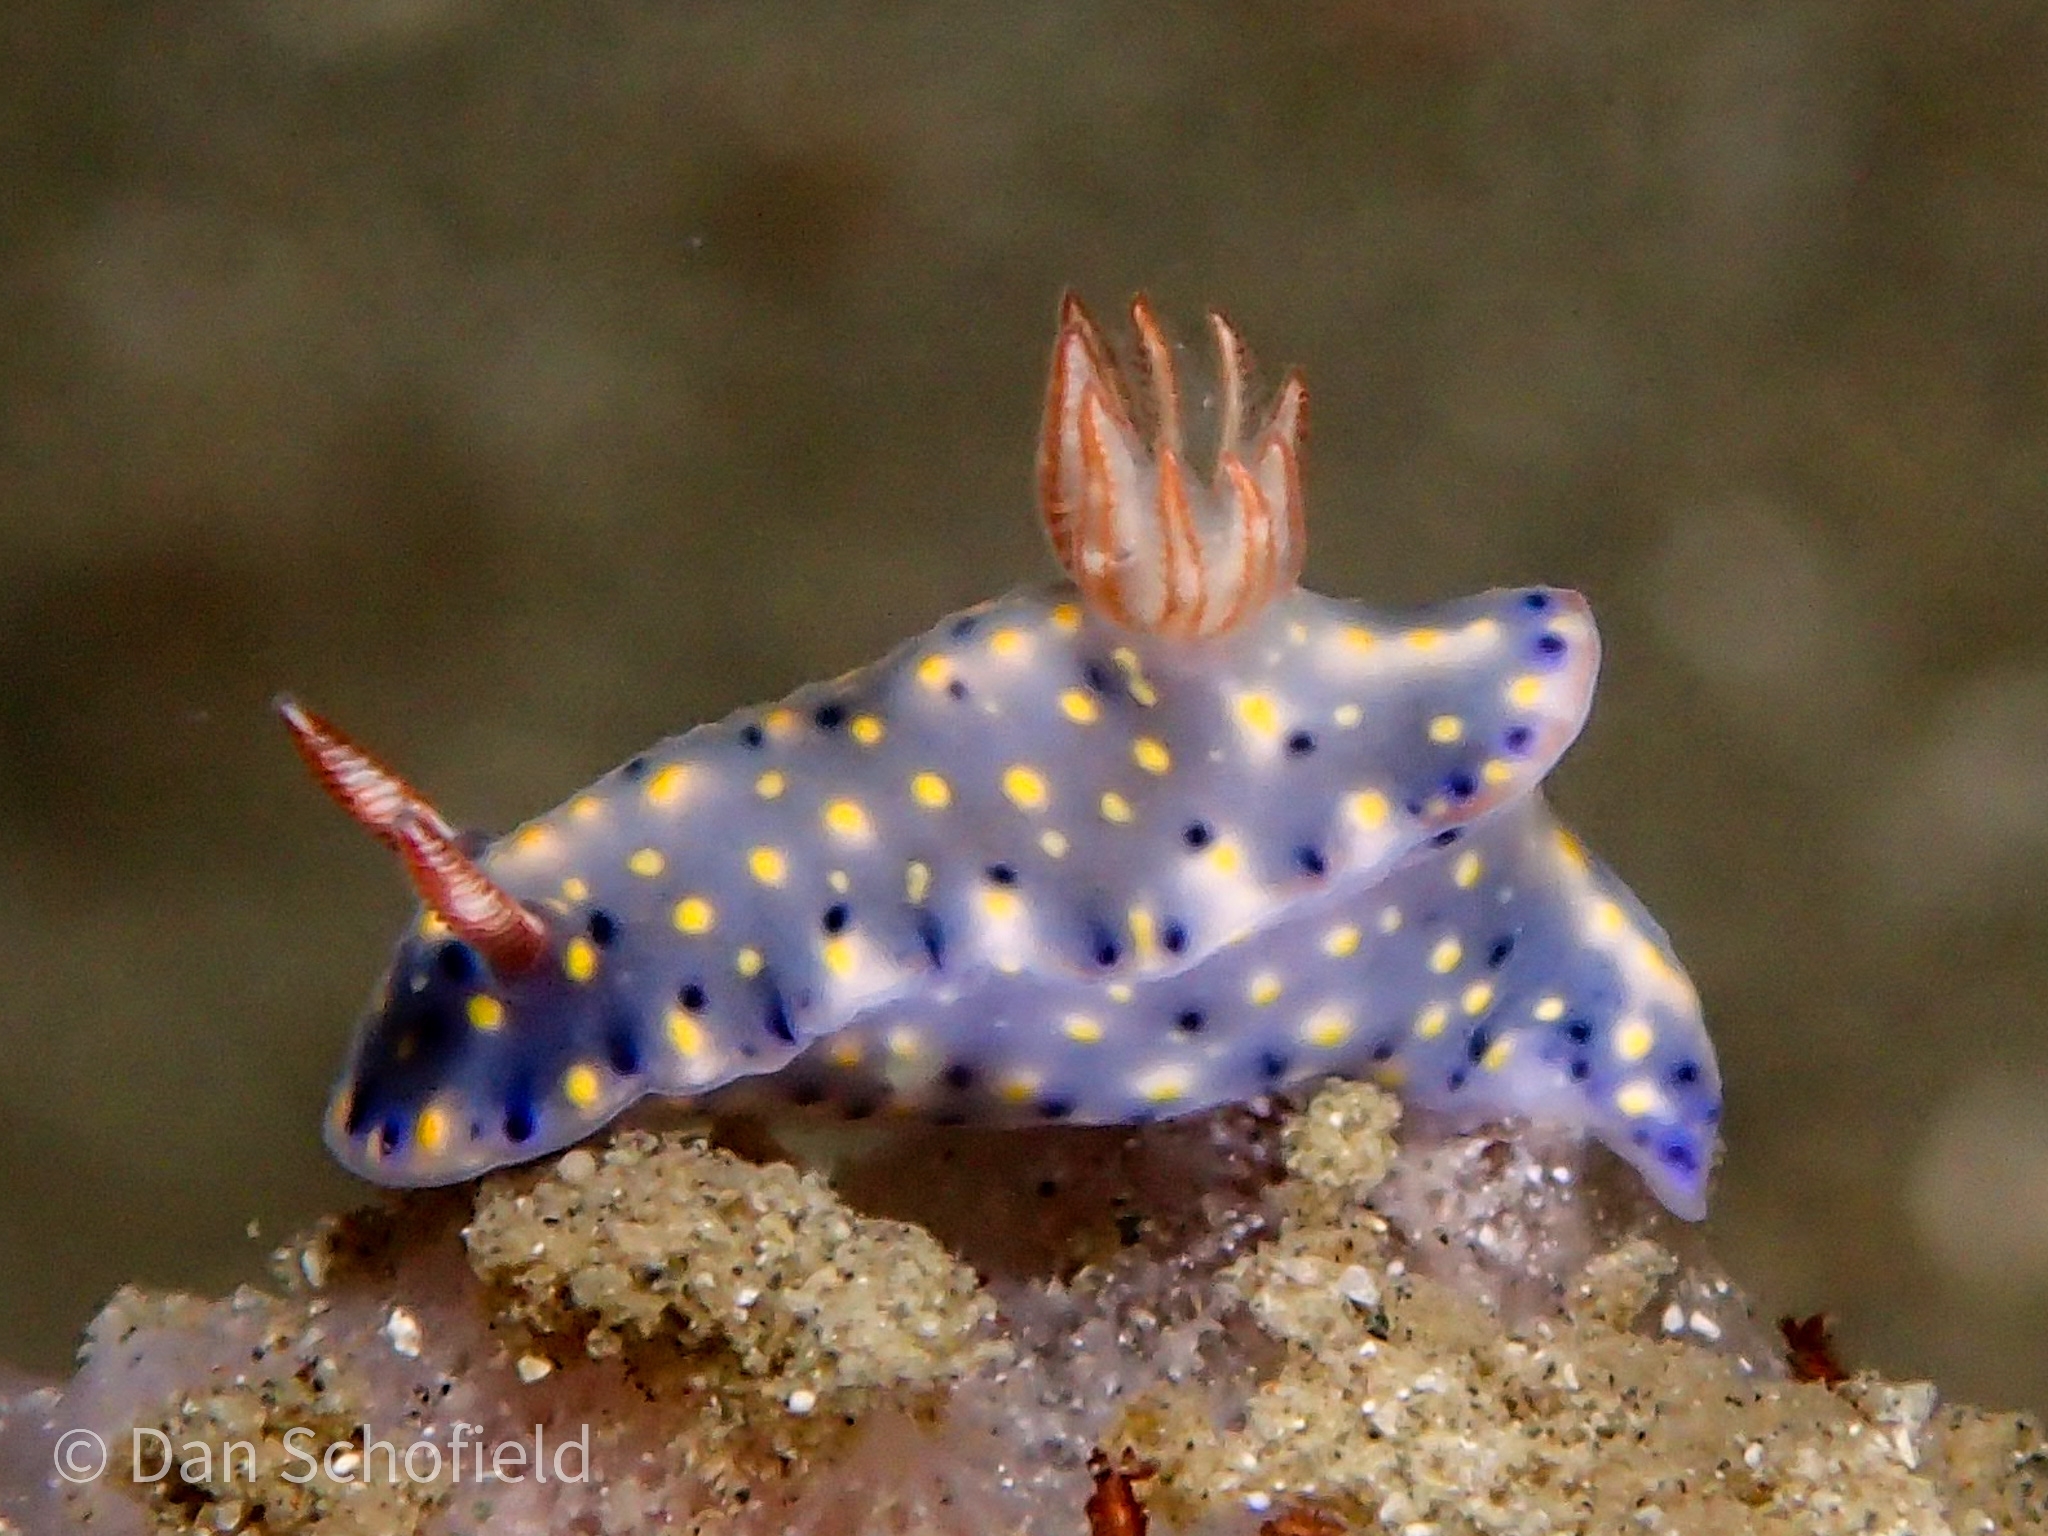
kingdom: Animalia
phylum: Mollusca
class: Gastropoda
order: Nudibranchia
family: Chromodorididae
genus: Hypselodoris
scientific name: Hypselodoris roo
